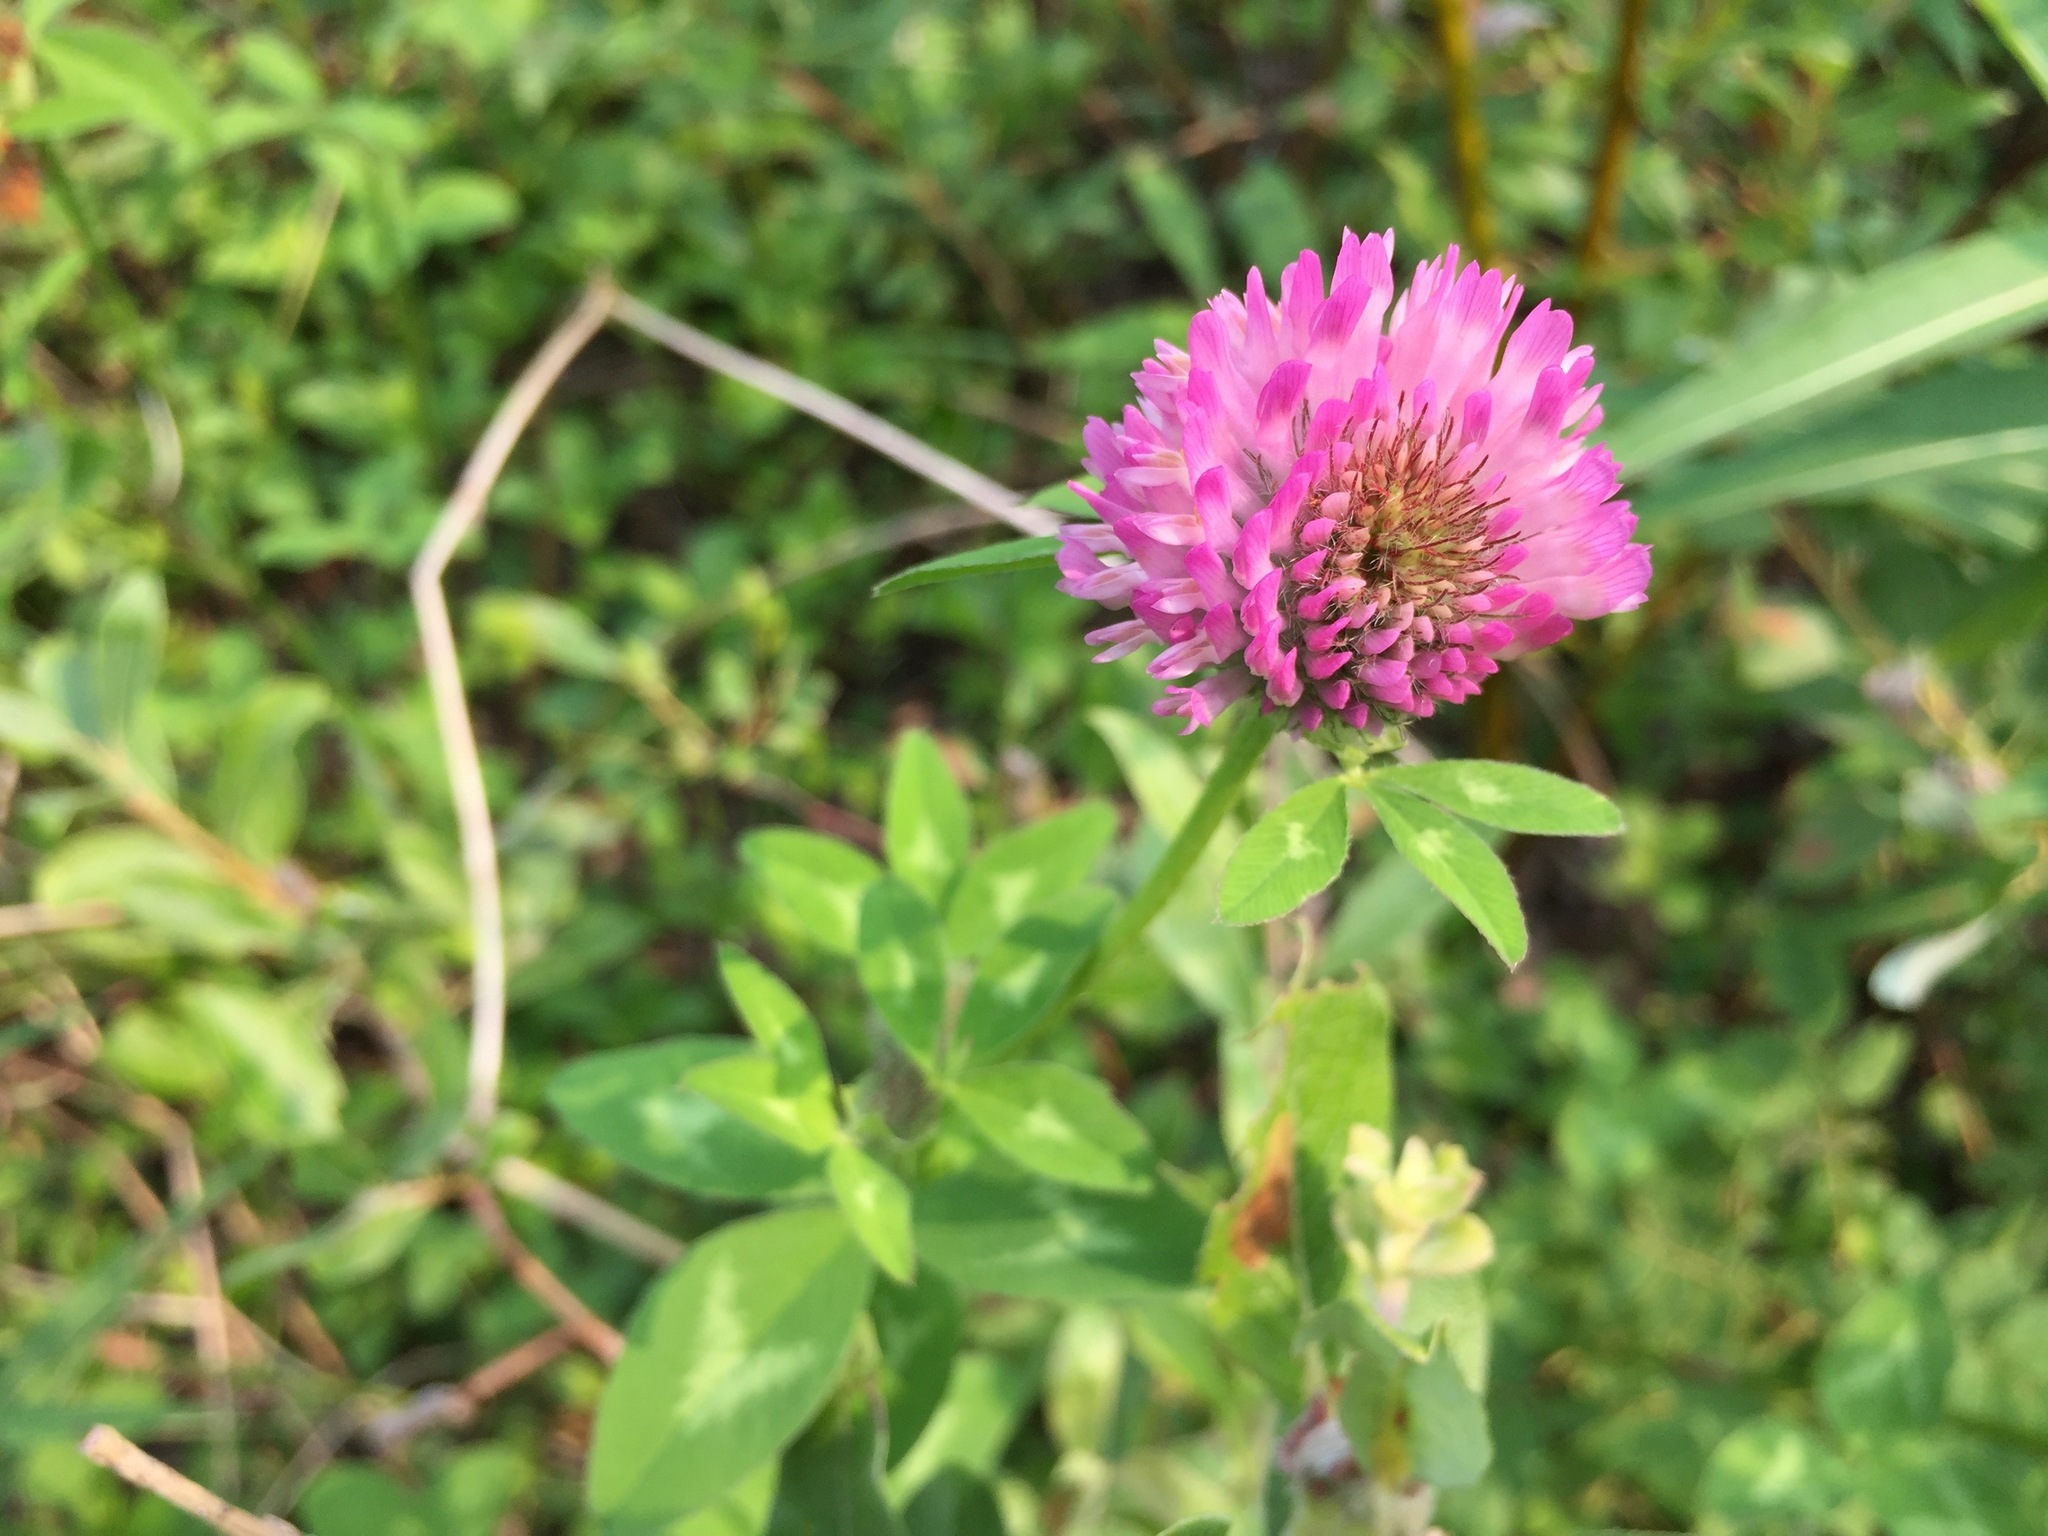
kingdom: Plantae
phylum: Tracheophyta
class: Magnoliopsida
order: Fabales
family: Fabaceae
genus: Trifolium
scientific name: Trifolium pratense
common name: Red clover
